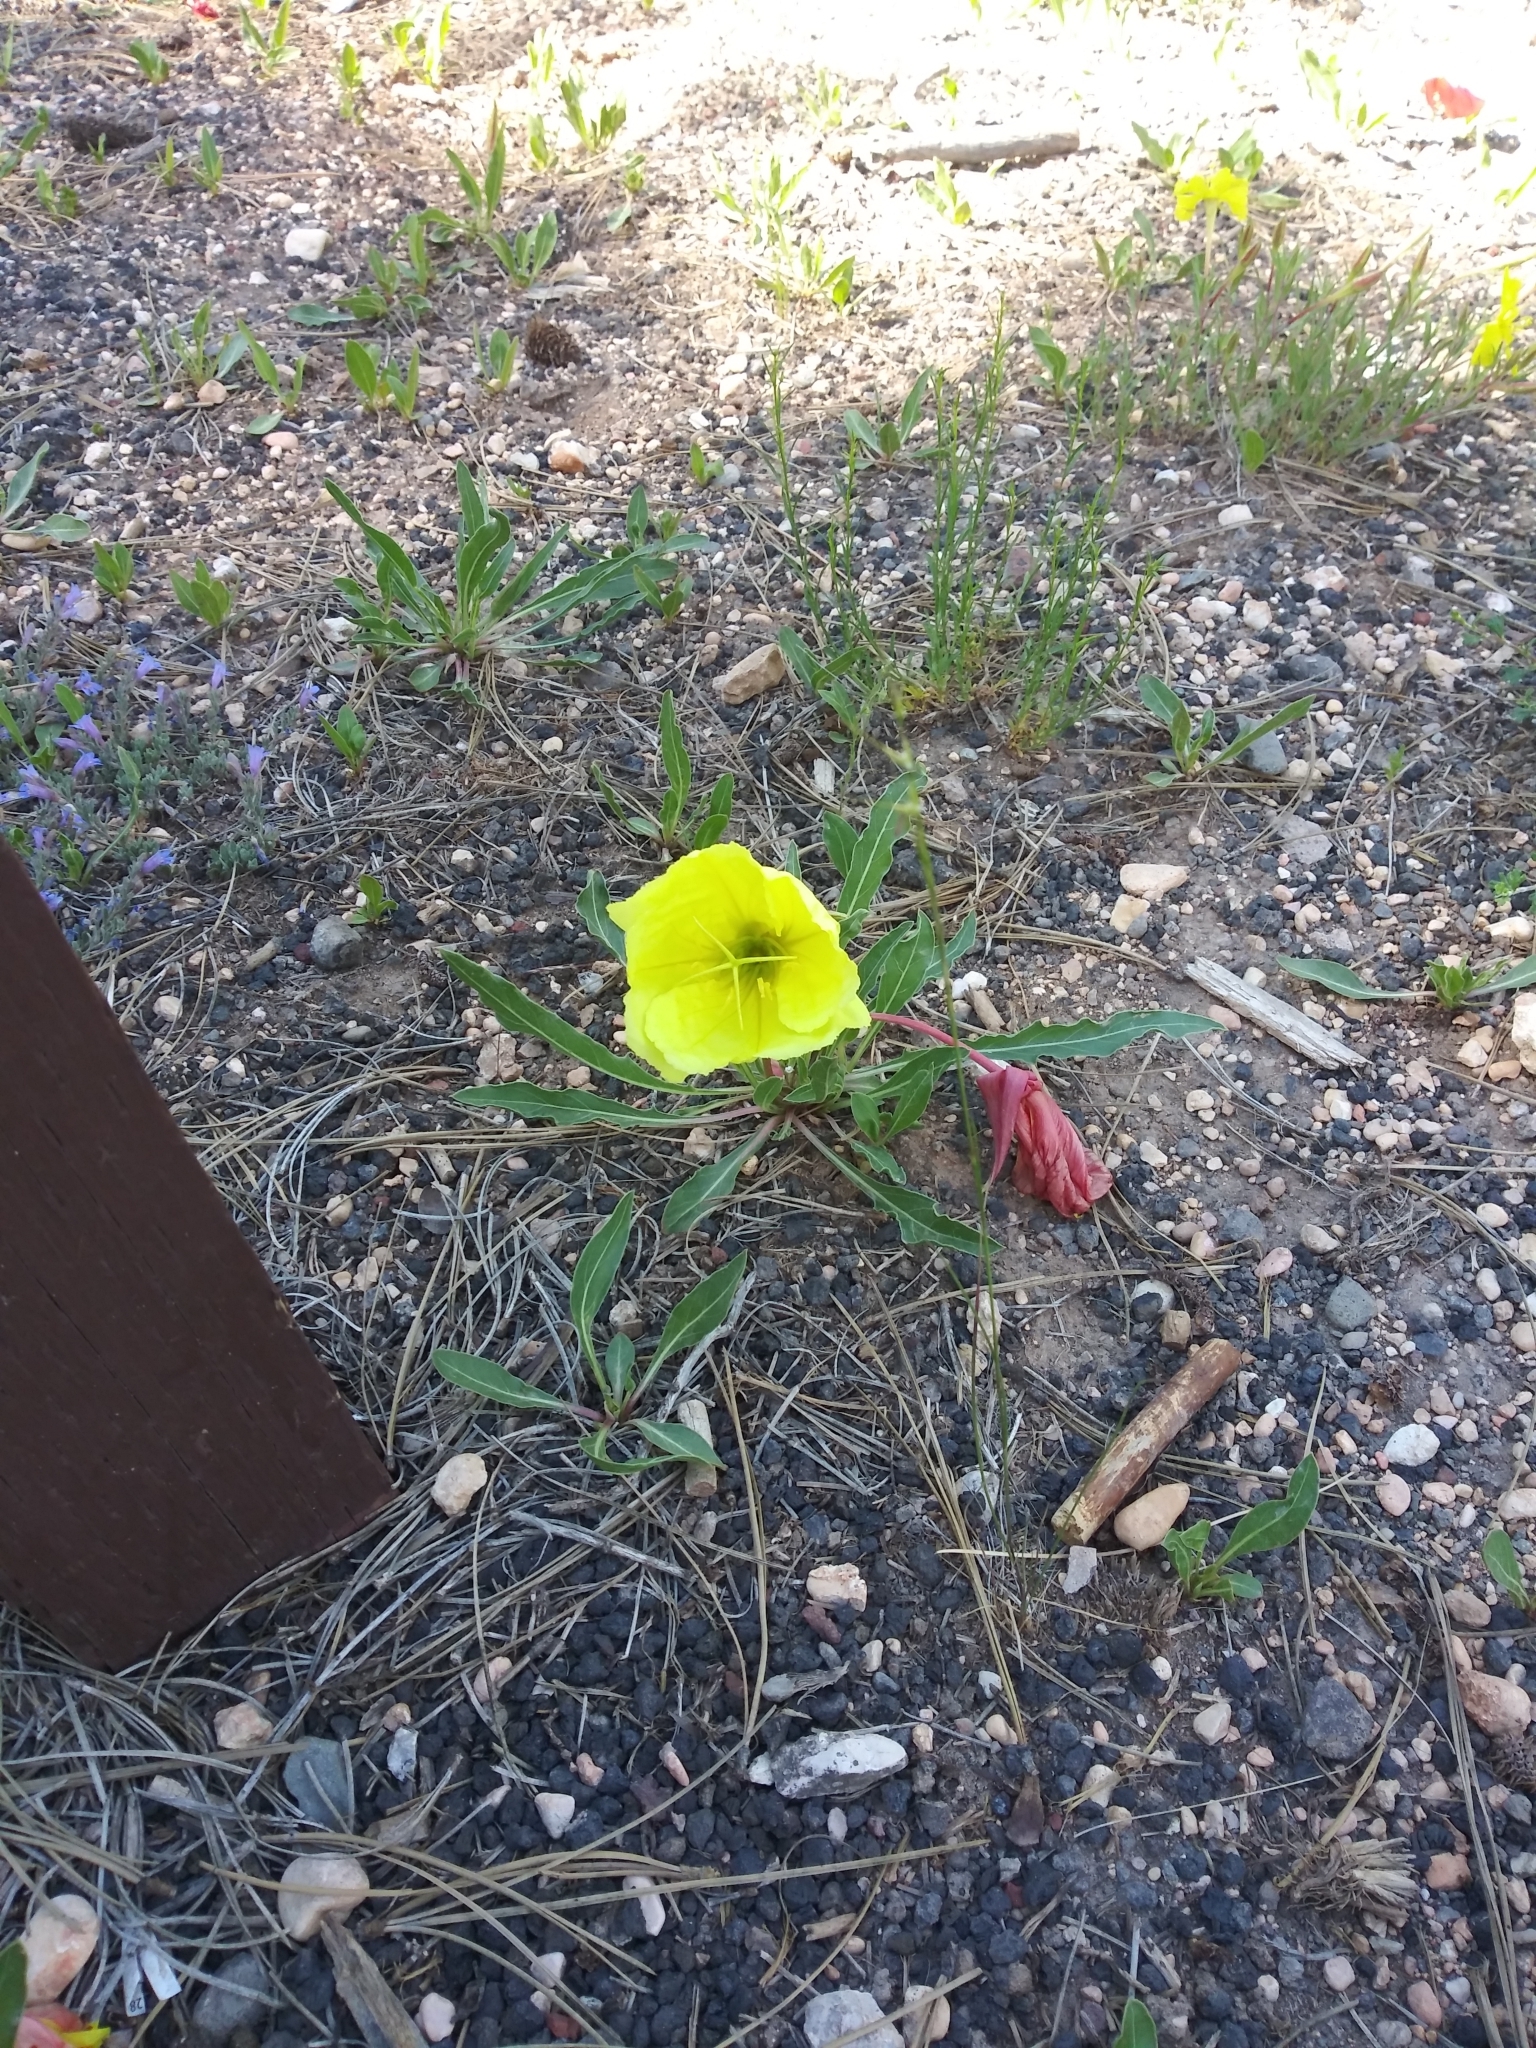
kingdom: Plantae
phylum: Tracheophyta
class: Magnoliopsida
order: Myrtales
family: Onagraceae
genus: Oenothera
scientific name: Oenothera howardii
